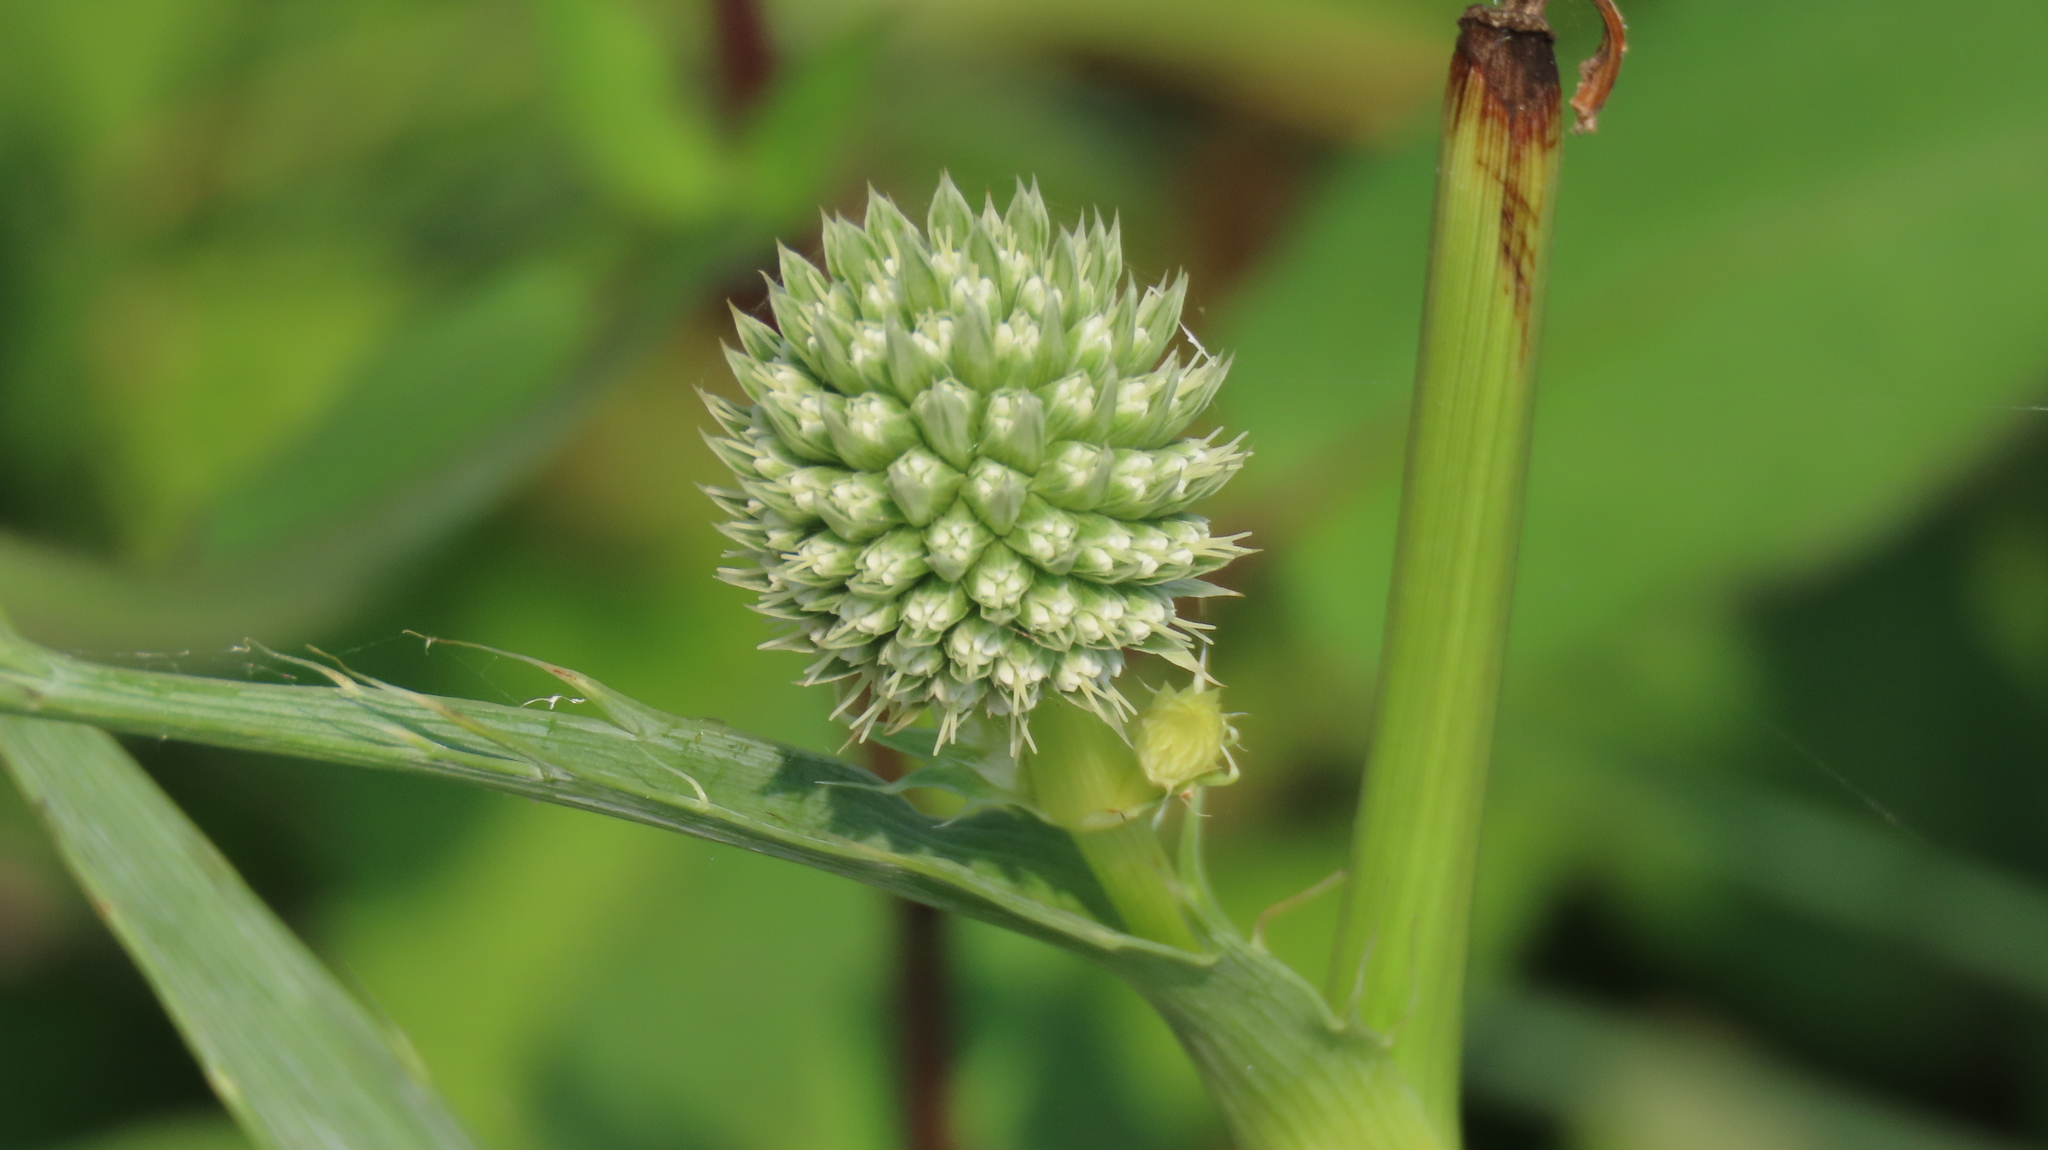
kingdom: Plantae
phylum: Tracheophyta
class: Magnoliopsida
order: Apiales
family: Apiaceae
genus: Eryngium
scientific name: Eryngium yuccifolium
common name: Button eryngo
